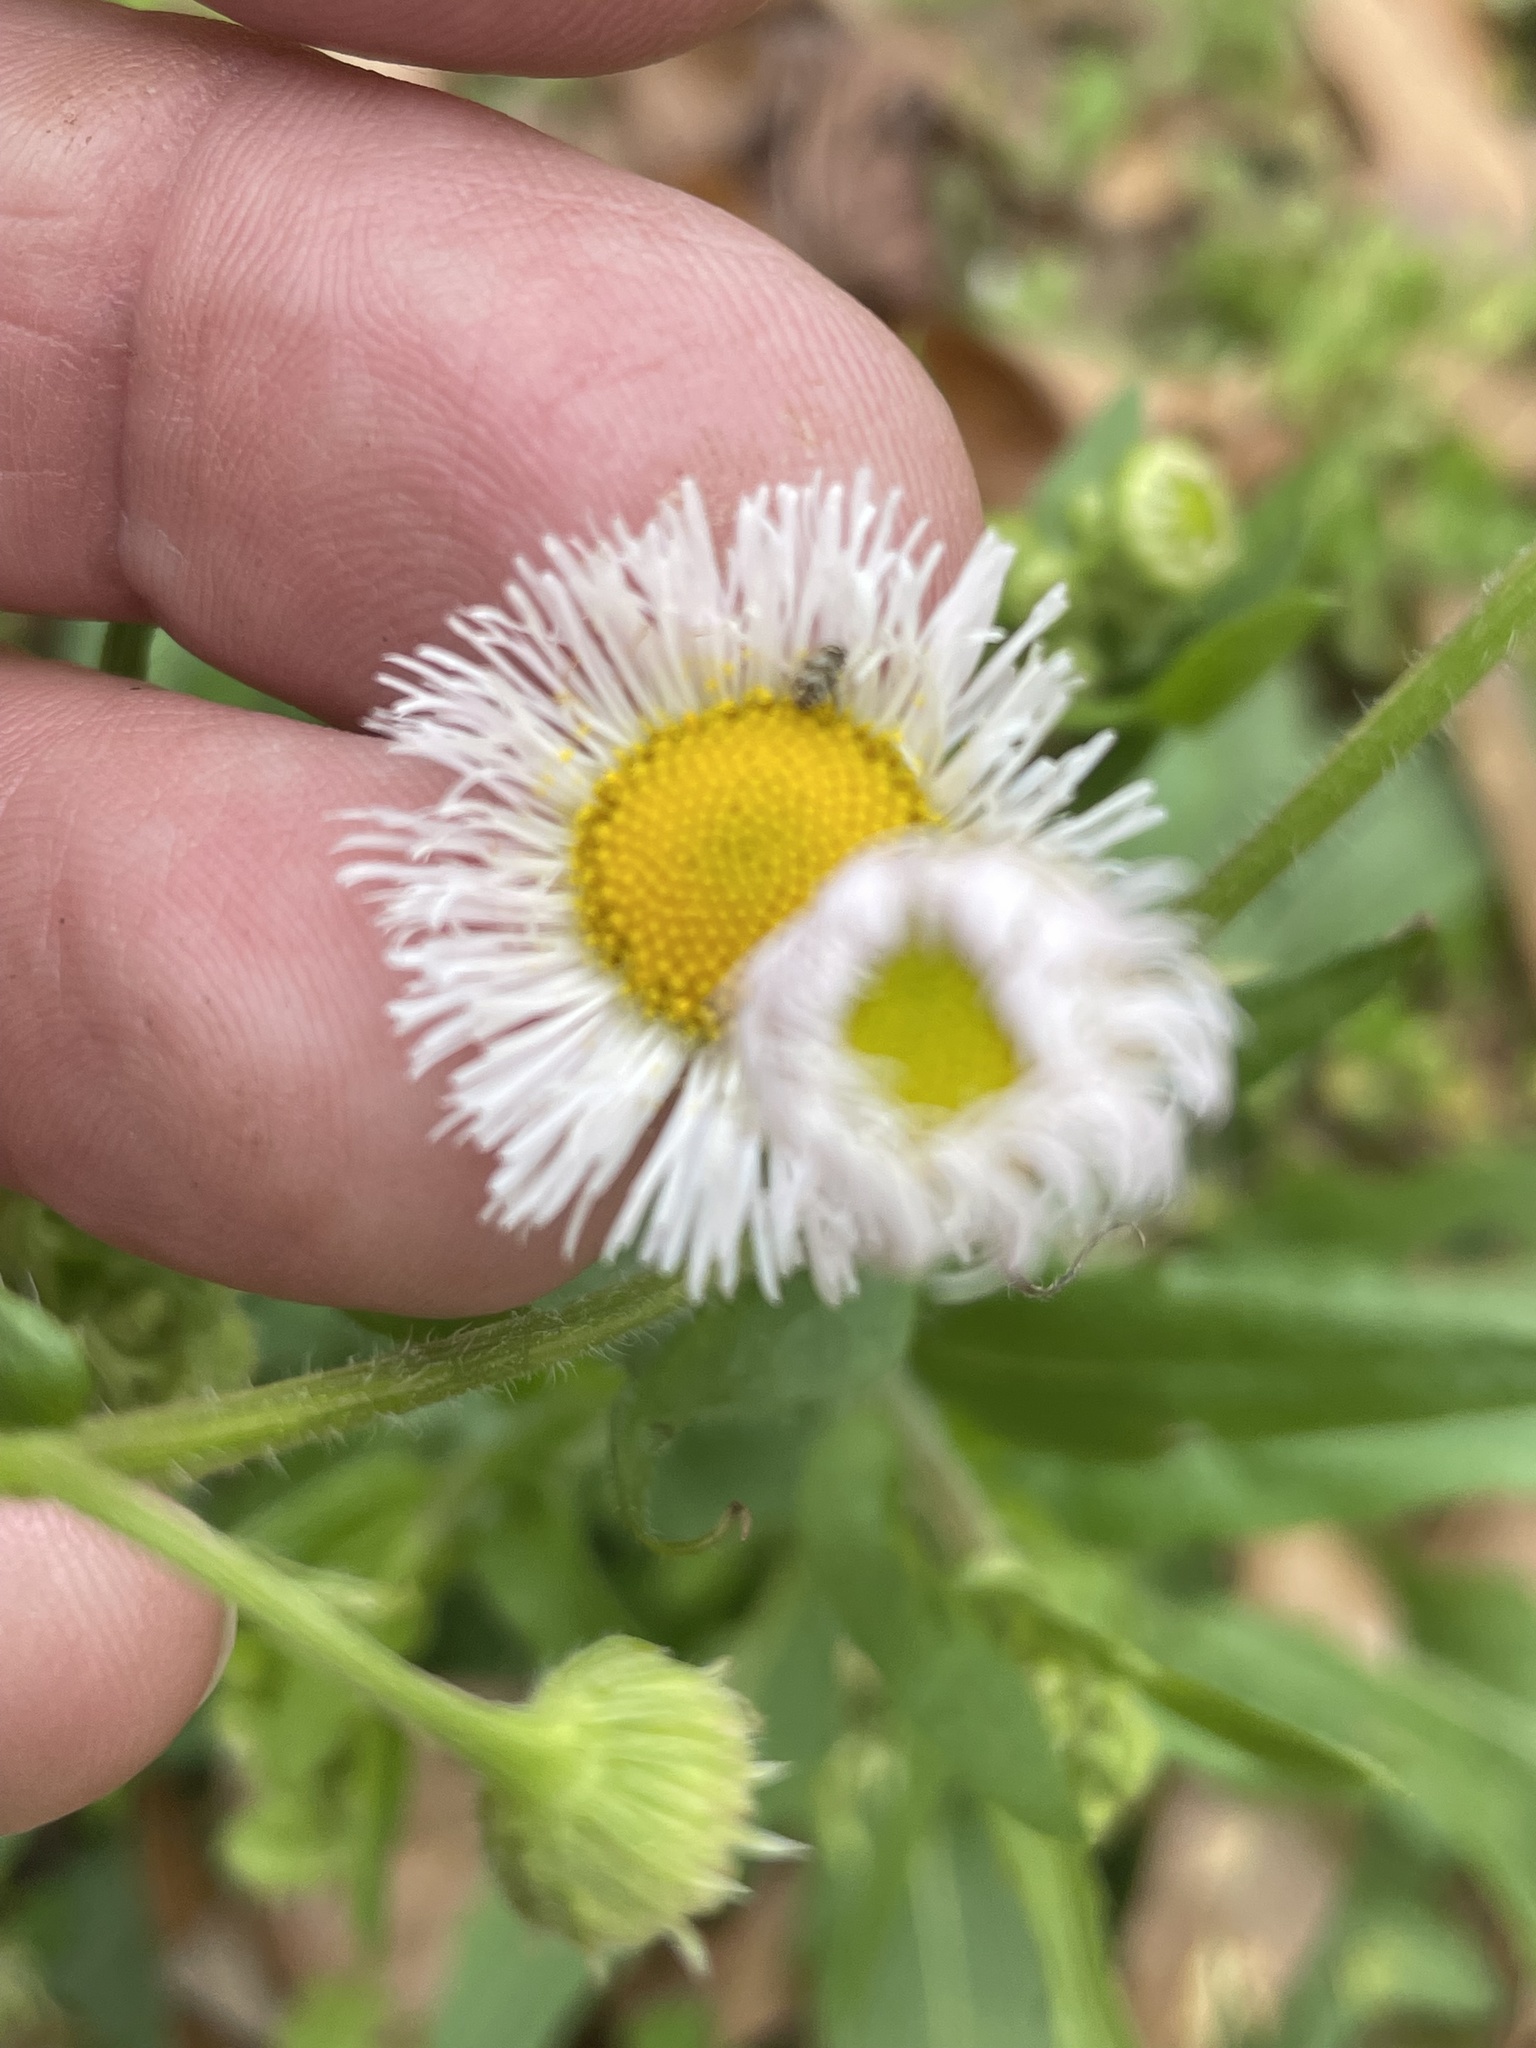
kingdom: Plantae
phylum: Tracheophyta
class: Magnoliopsida
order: Asterales
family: Asteraceae
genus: Erigeron
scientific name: Erigeron philadelphicus
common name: Robin's-plantain
